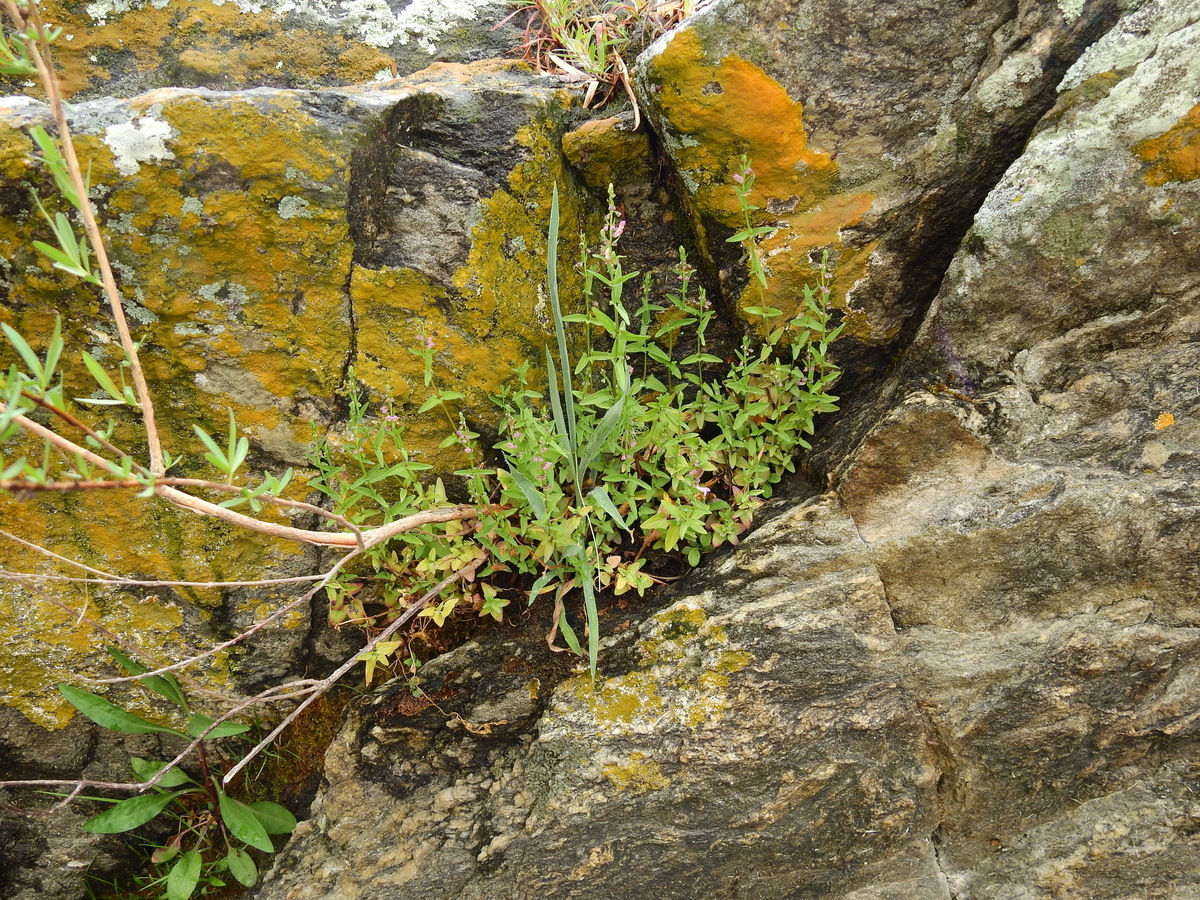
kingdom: Plantae
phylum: Tracheophyta
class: Magnoliopsida
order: Lamiales
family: Lamiaceae
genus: Scutellaria
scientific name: Scutellaria racemosa
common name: South american skullcap
